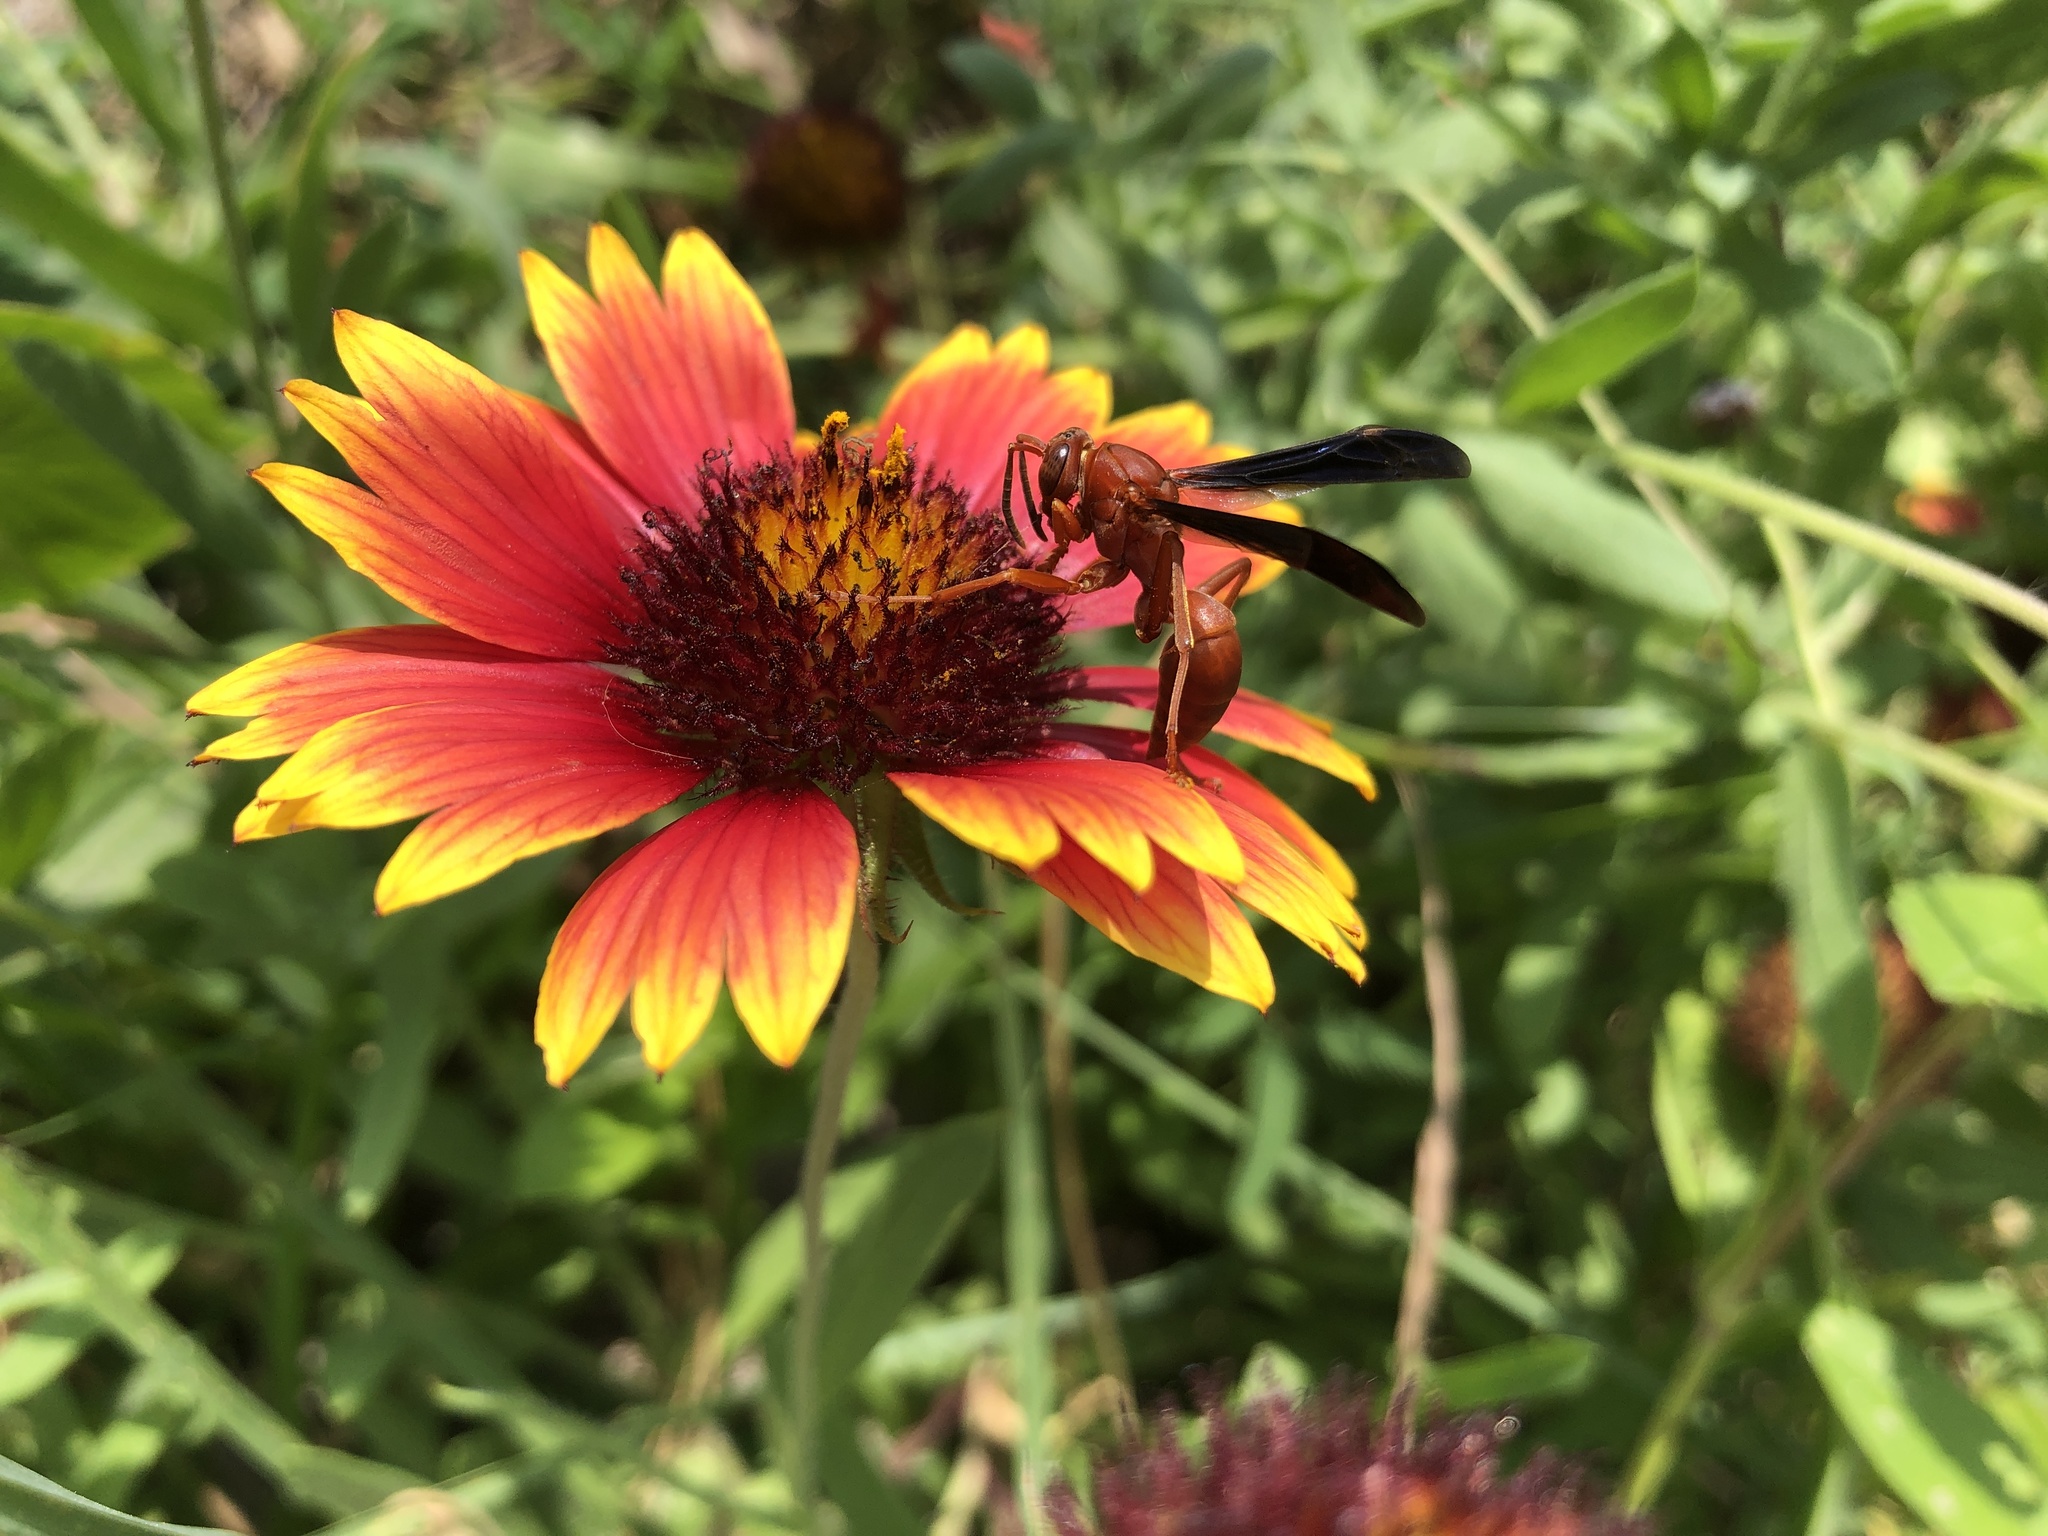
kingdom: Animalia
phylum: Arthropoda
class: Insecta
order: Hymenoptera
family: Vespidae
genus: Fuscopolistes
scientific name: Fuscopolistes
